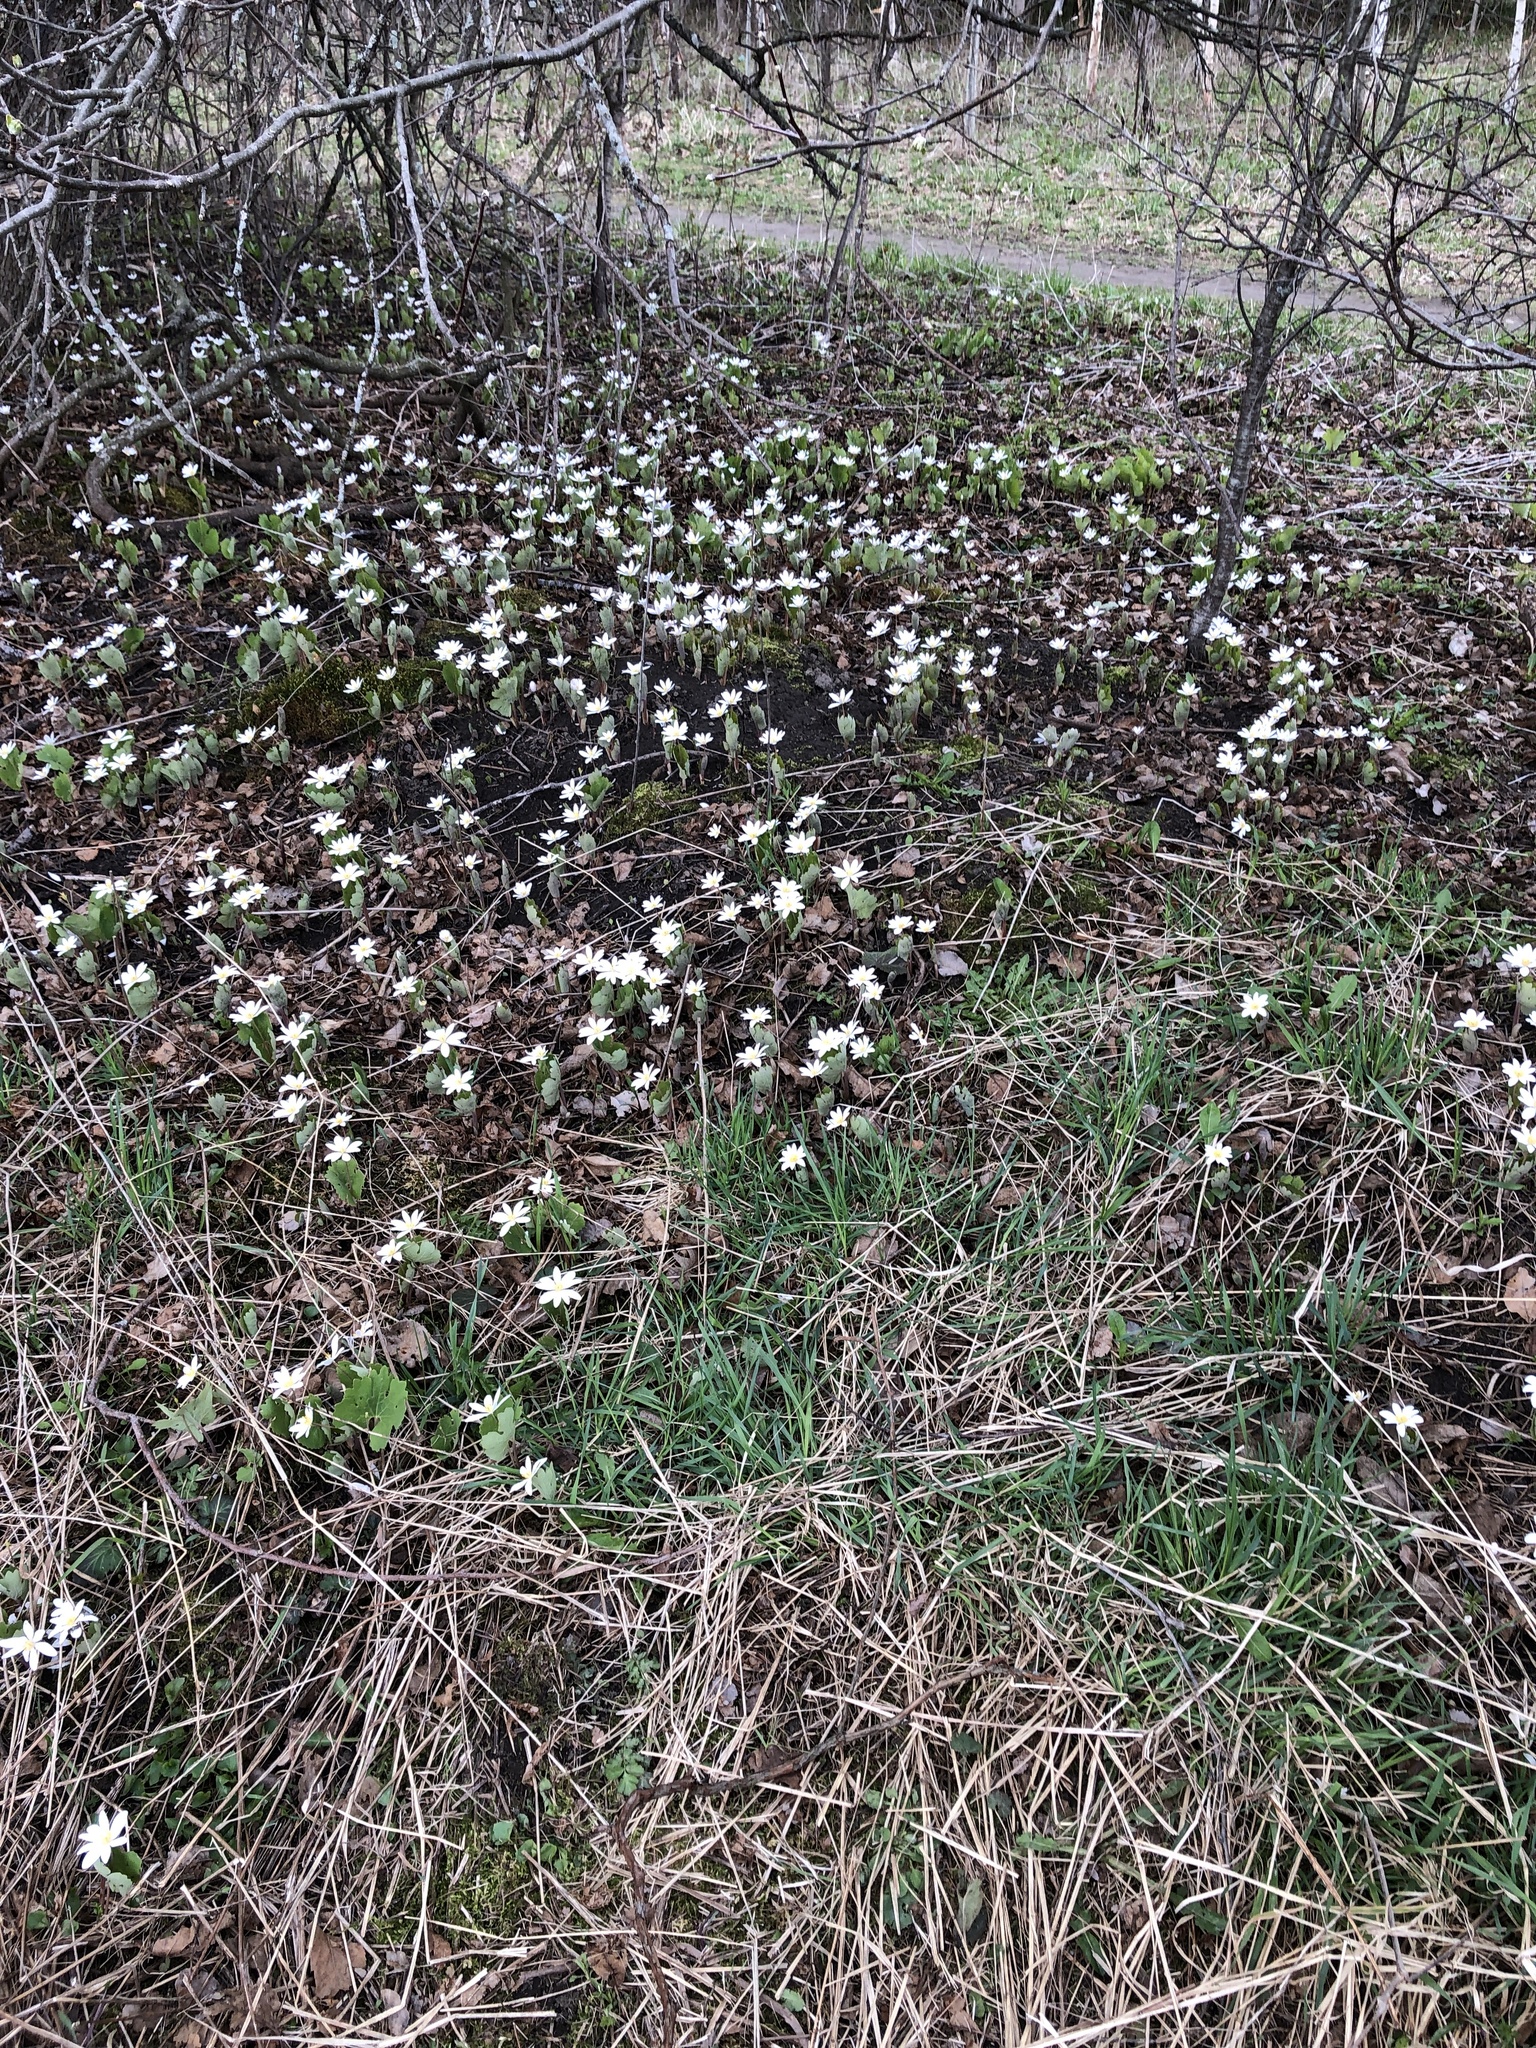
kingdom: Plantae
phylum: Tracheophyta
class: Magnoliopsida
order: Ranunculales
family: Papaveraceae
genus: Sanguinaria
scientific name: Sanguinaria canadensis
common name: Bloodroot
